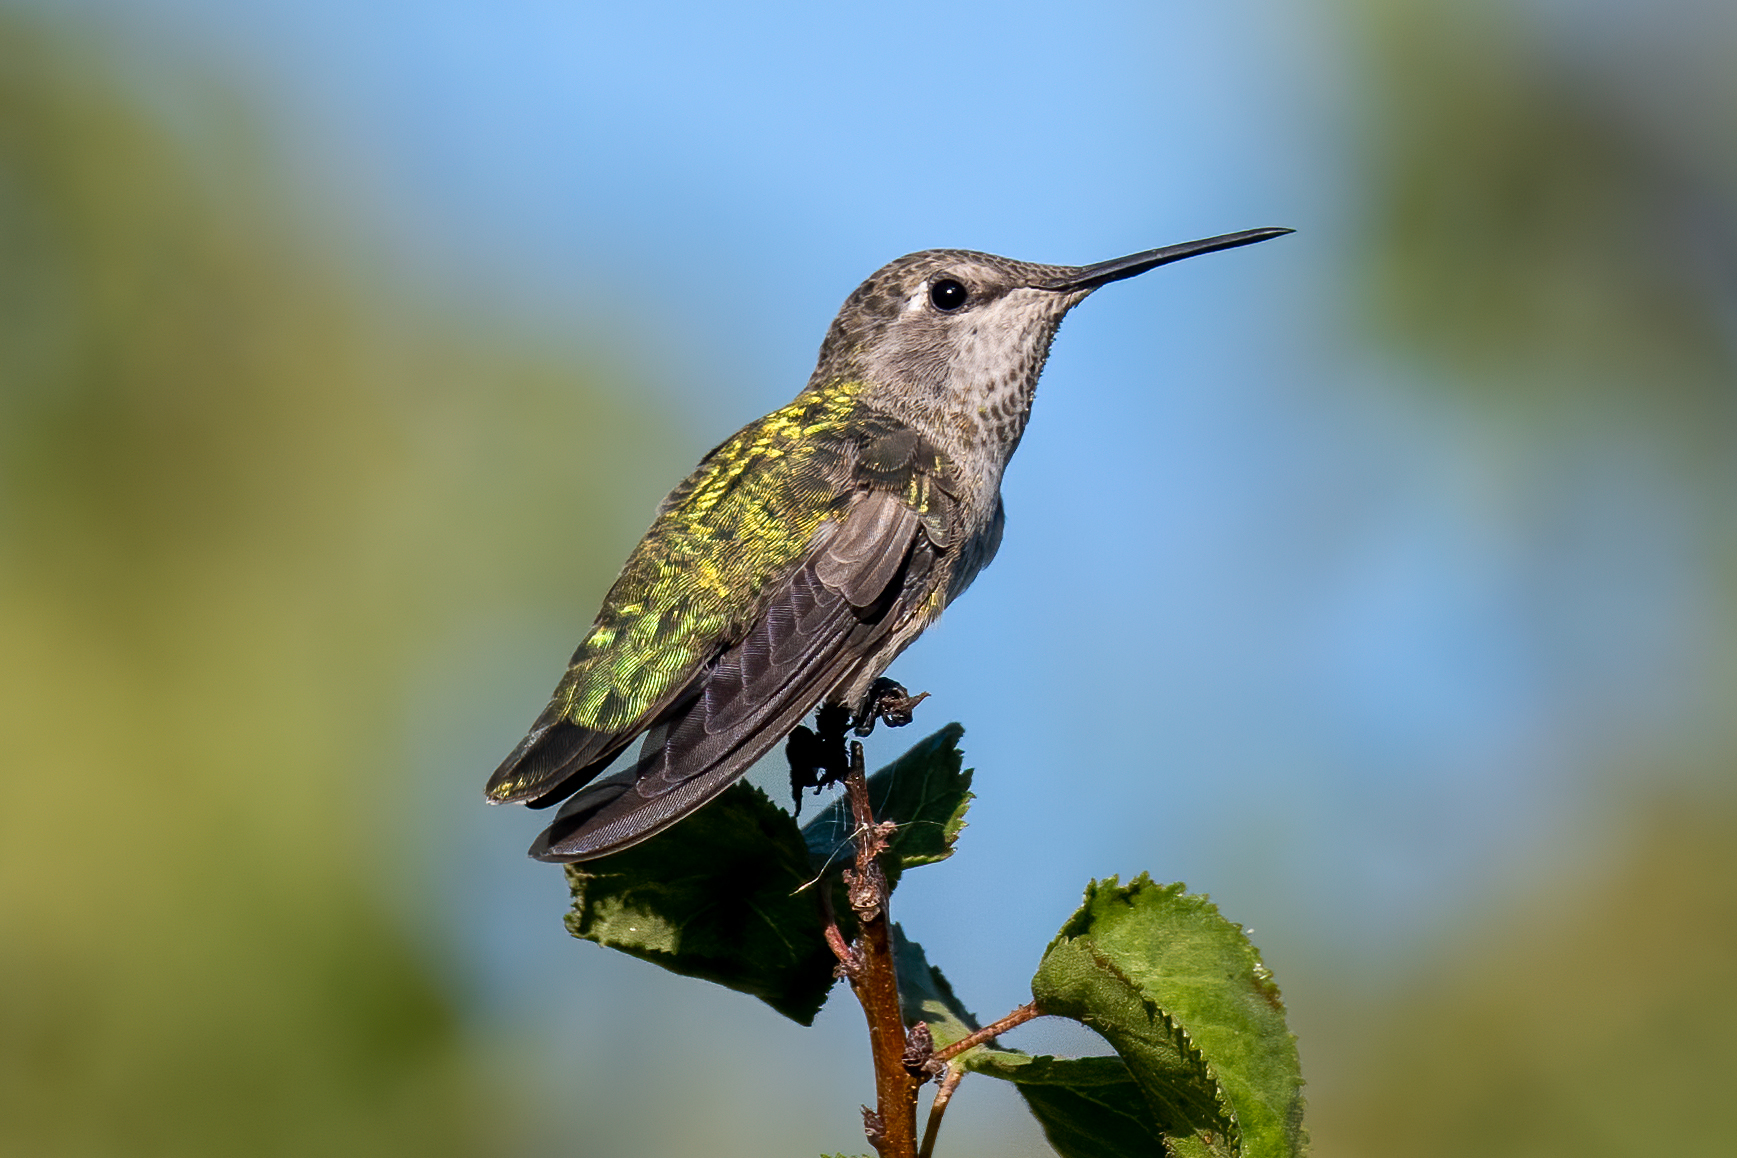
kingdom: Animalia
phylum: Chordata
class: Aves
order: Apodiformes
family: Trochilidae
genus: Calypte
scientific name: Calypte anna
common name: Anna's hummingbird
